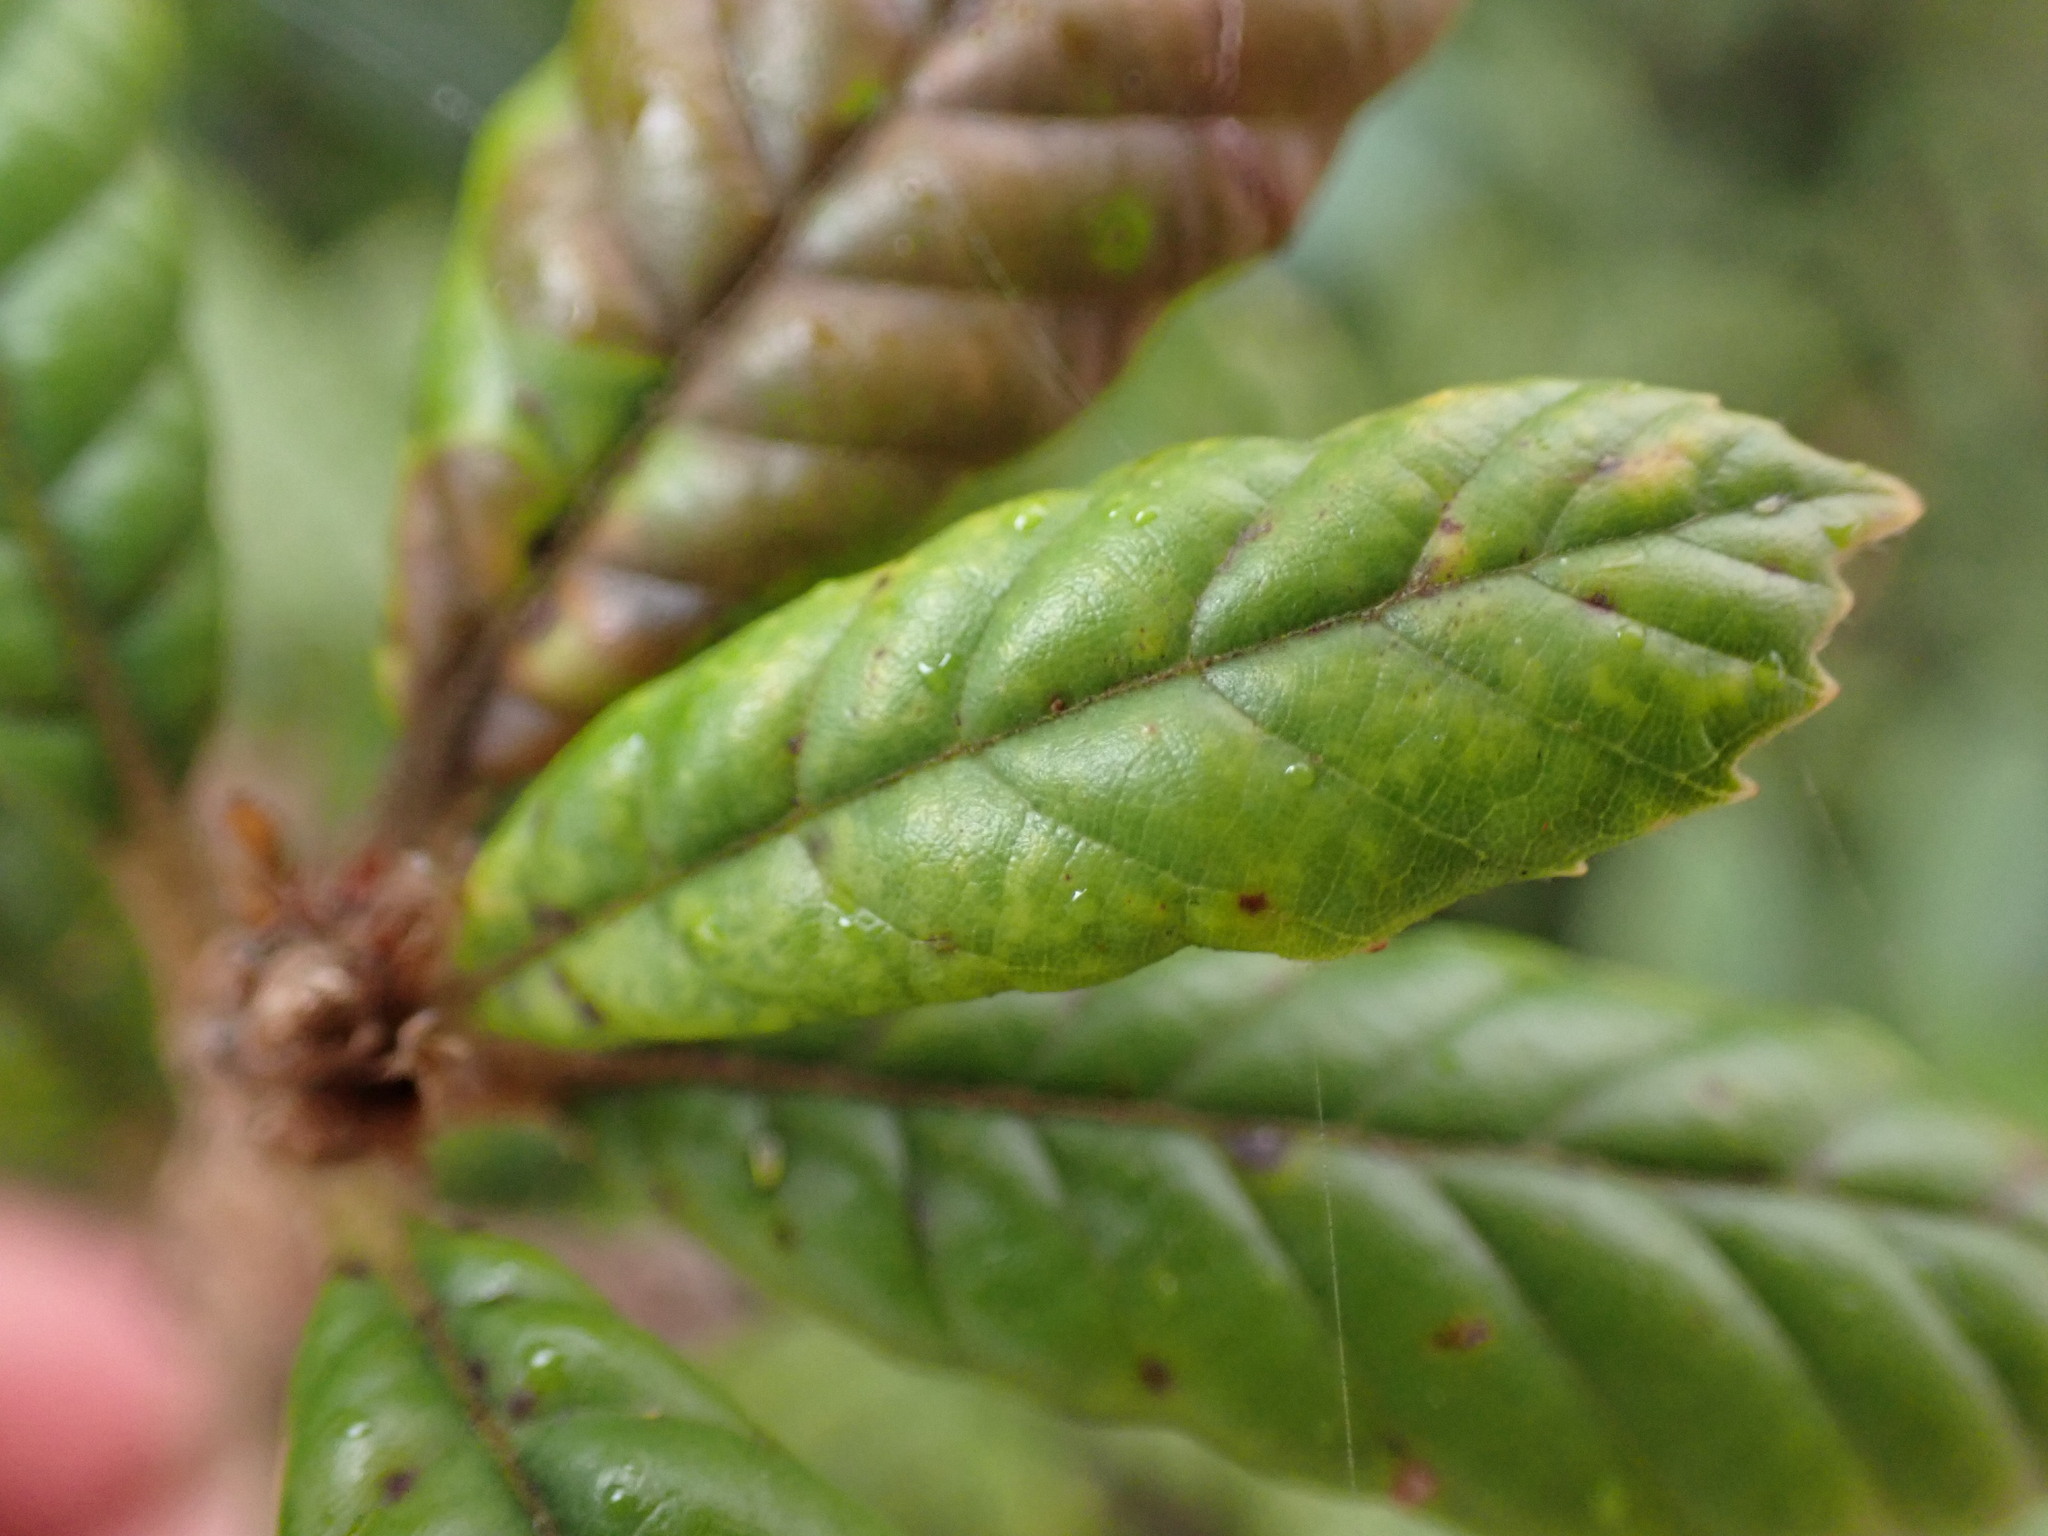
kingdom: Plantae
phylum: Tracheophyta
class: Magnoliopsida
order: Fagales
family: Fagaceae
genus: Lithocarpus
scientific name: Lithocarpus quercifolius
